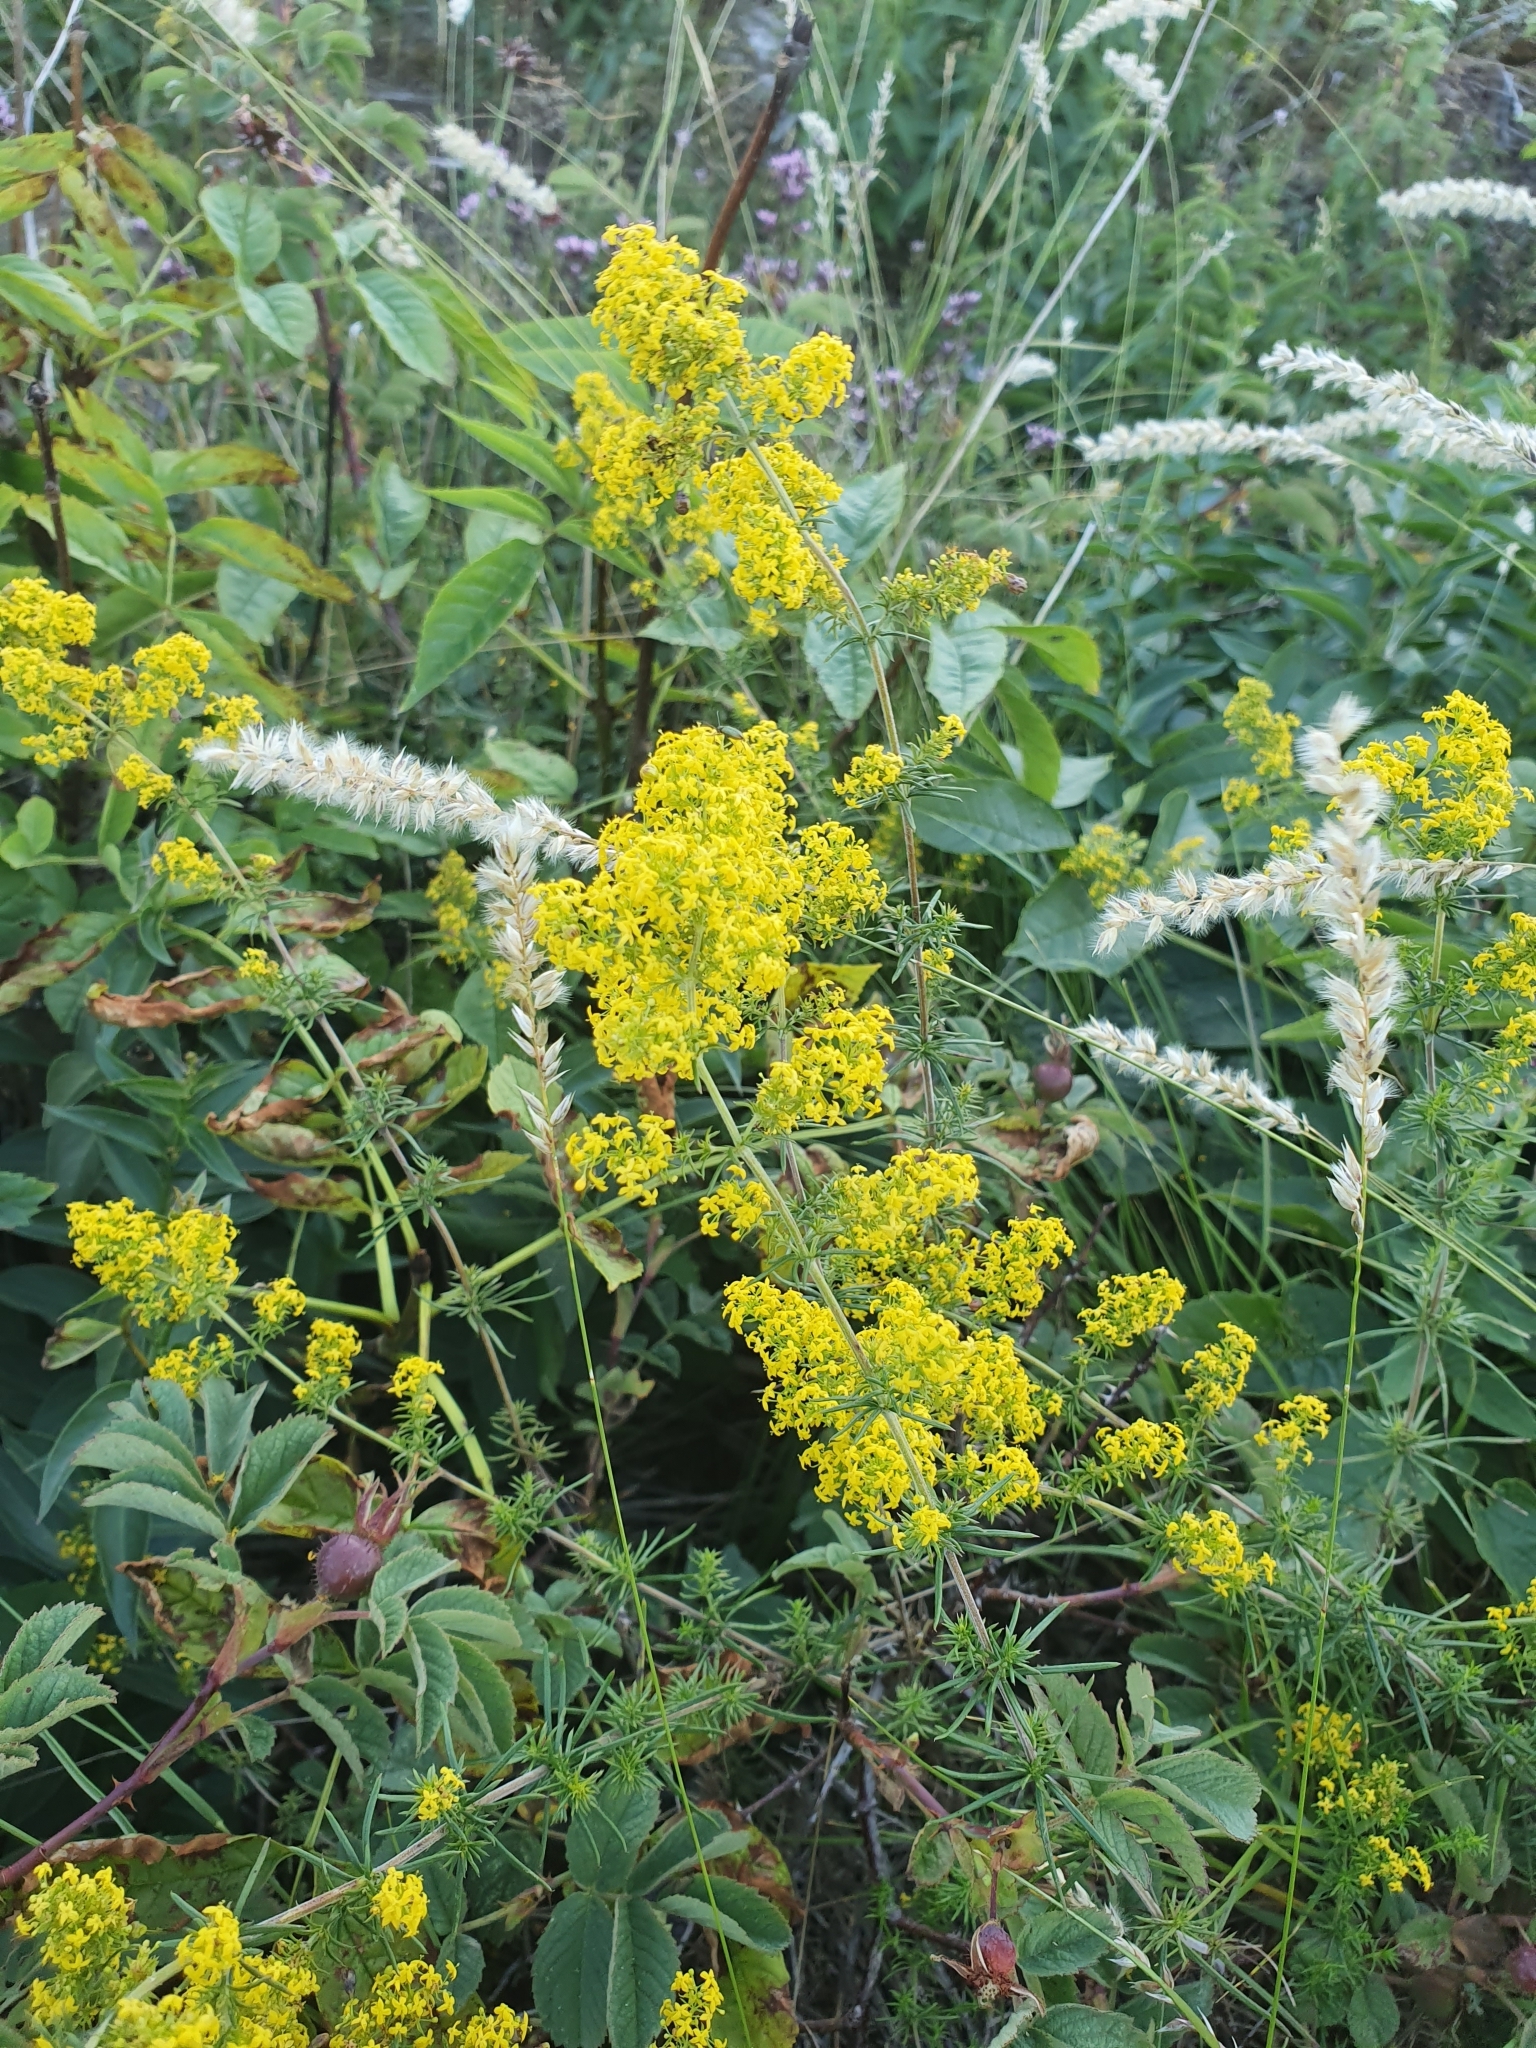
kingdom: Plantae
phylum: Tracheophyta
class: Magnoliopsida
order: Gentianales
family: Rubiaceae
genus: Galium
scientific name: Galium verum
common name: Lady's bedstraw
